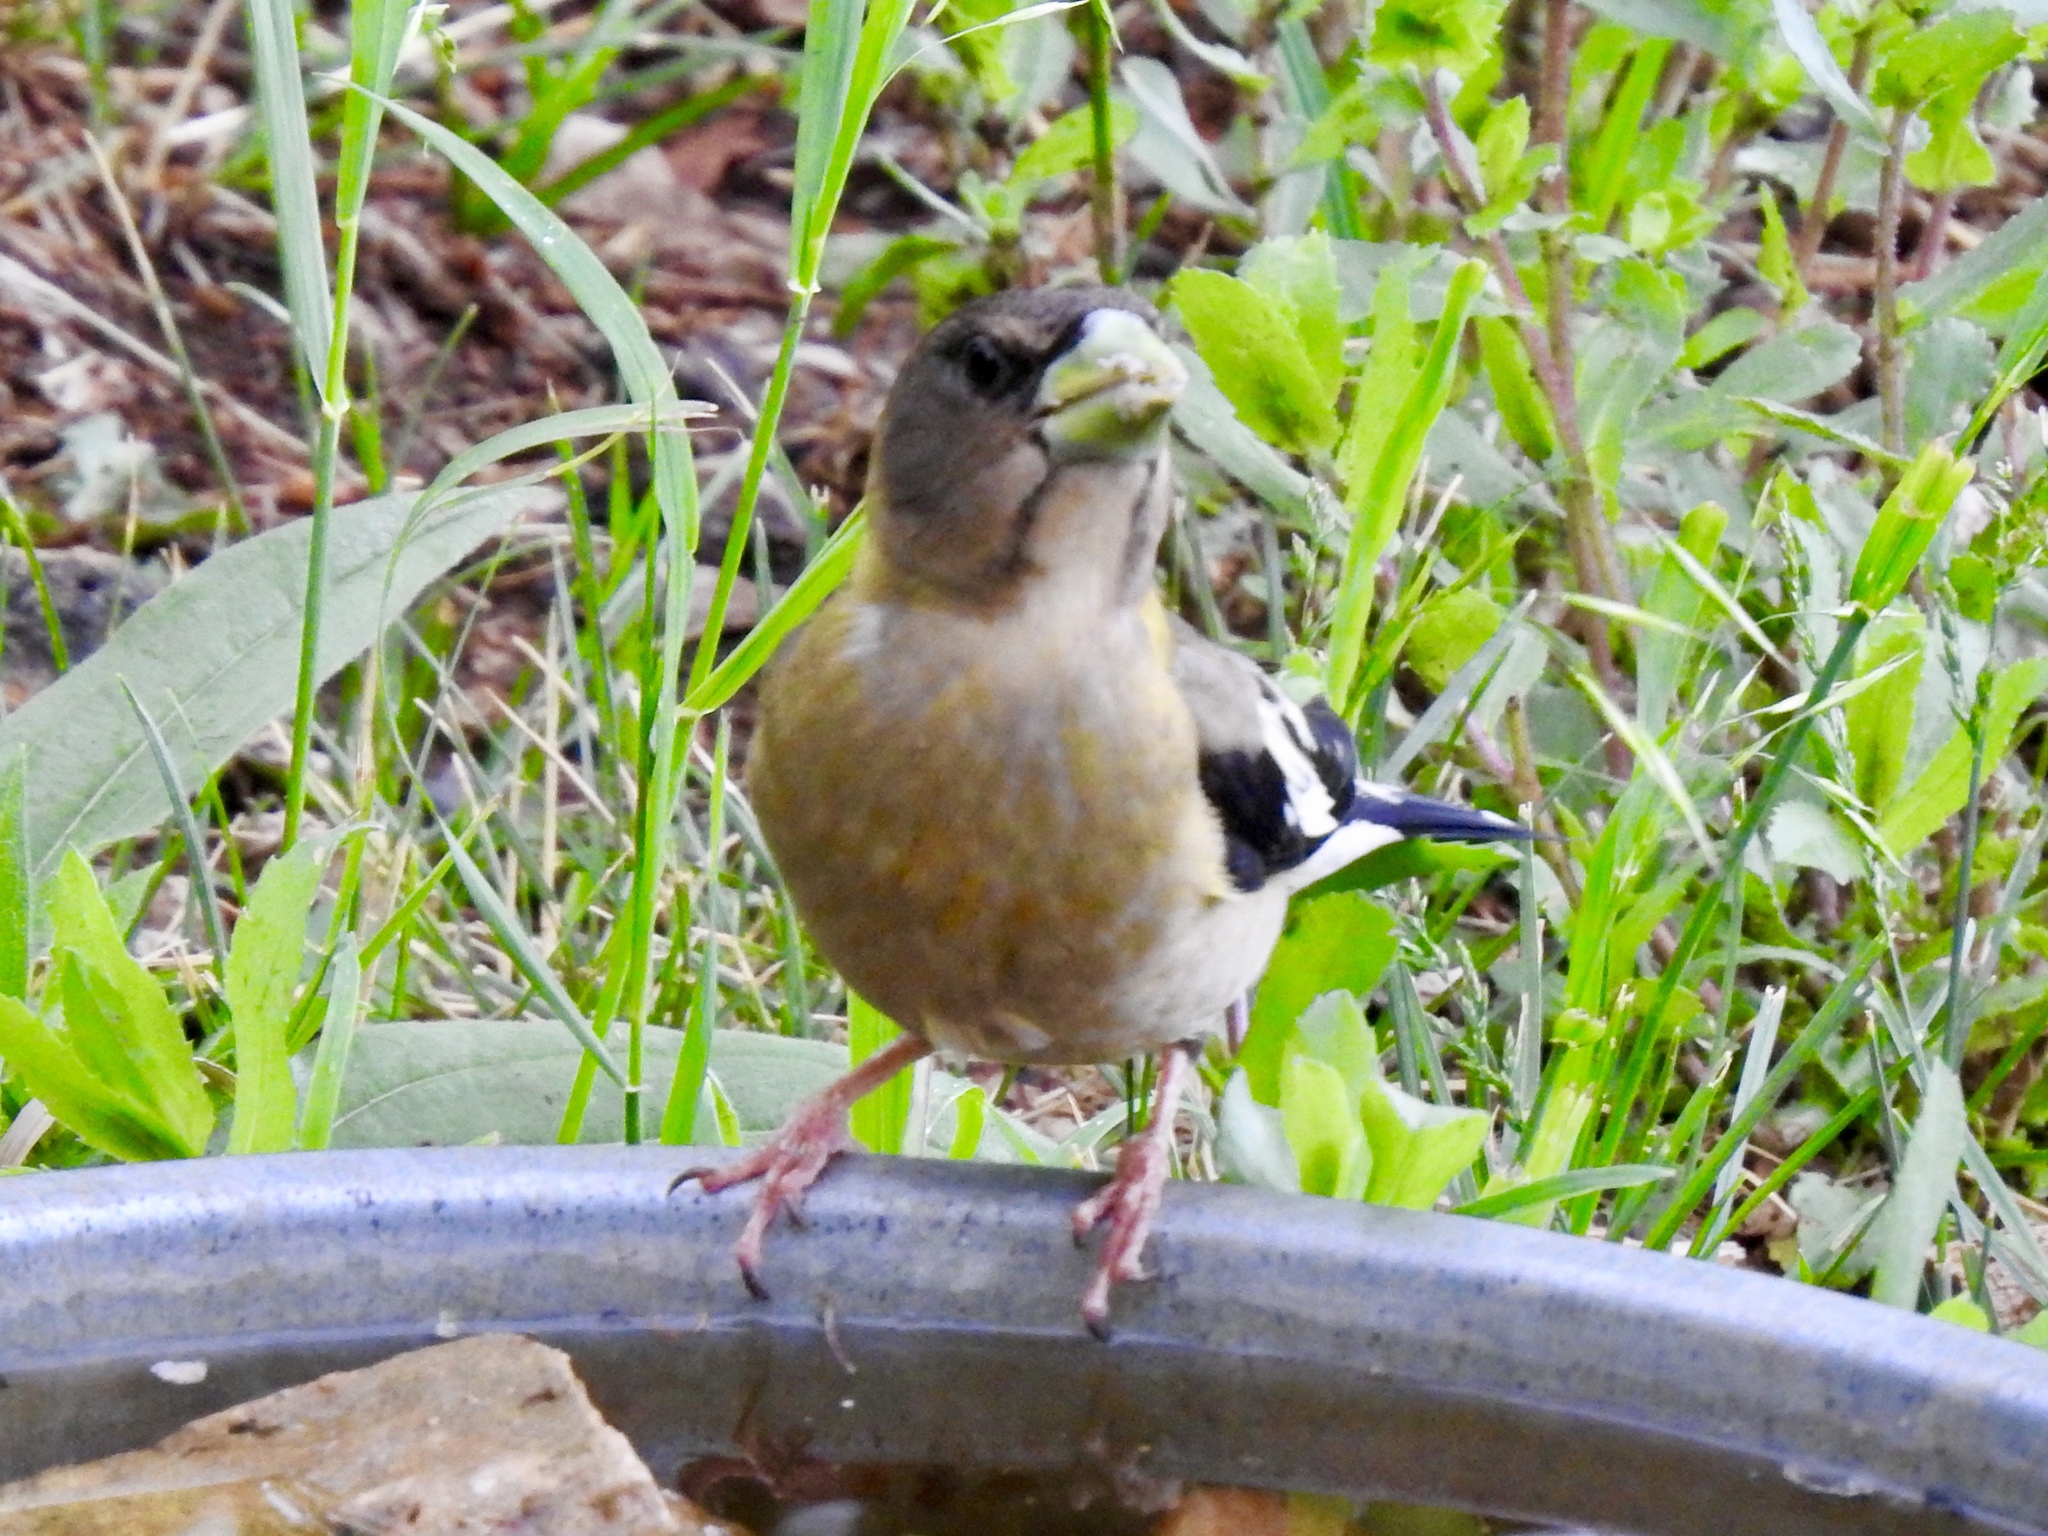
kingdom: Animalia
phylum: Chordata
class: Aves
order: Passeriformes
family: Fringillidae
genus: Hesperiphona
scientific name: Hesperiphona vespertina
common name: Evening grosbeak
